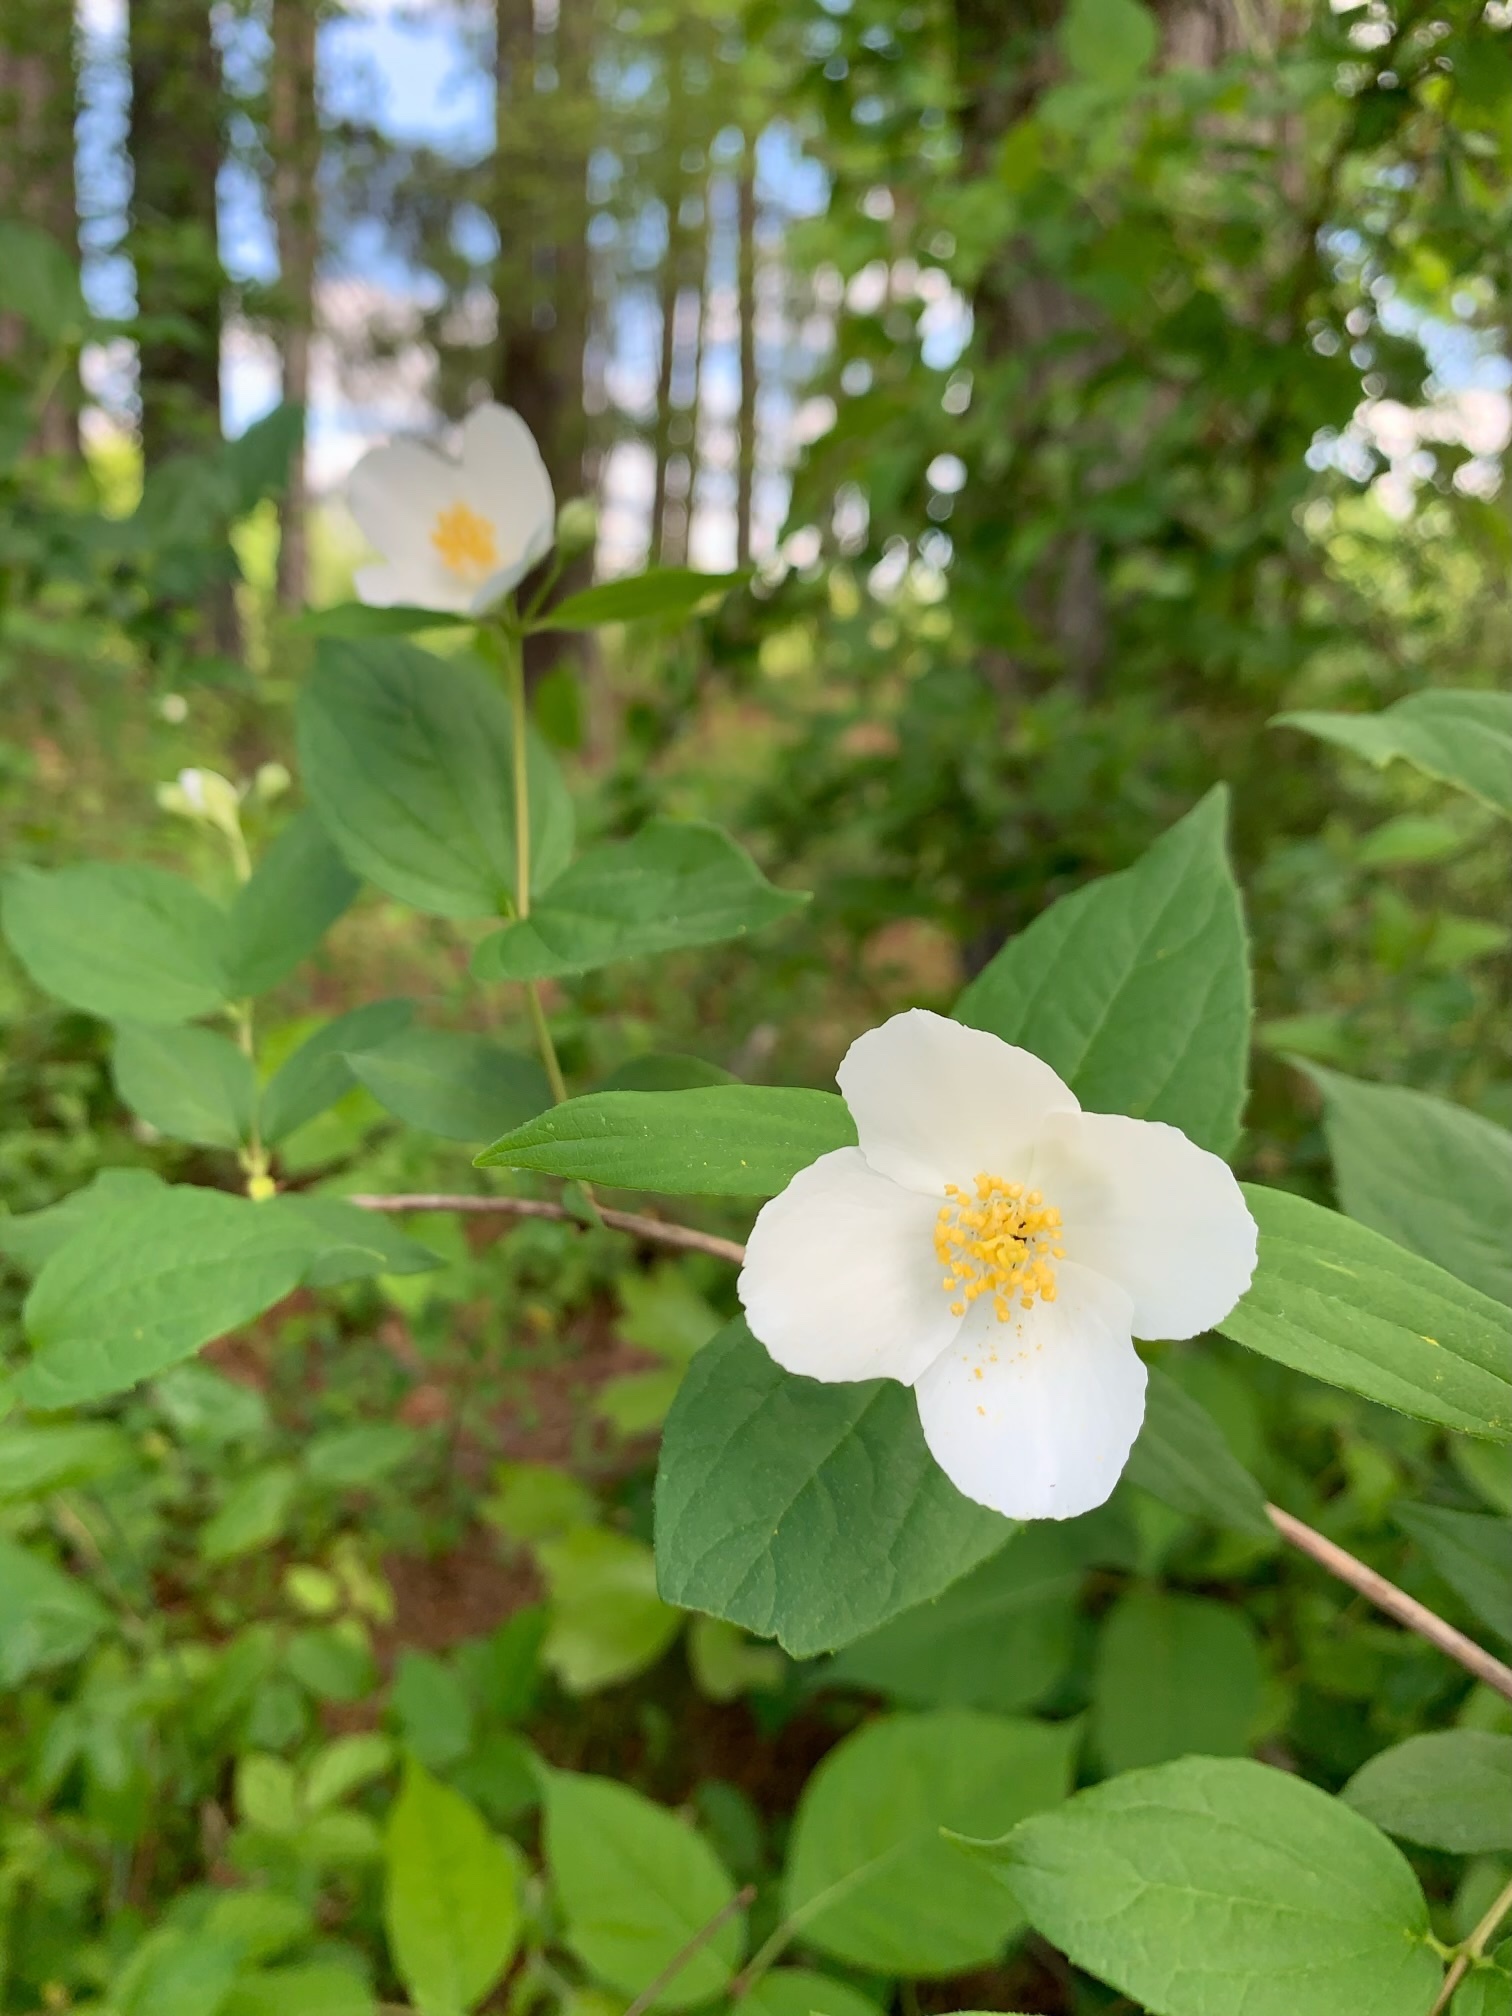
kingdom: Plantae
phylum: Tracheophyta
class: Magnoliopsida
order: Cornales
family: Hydrangeaceae
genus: Philadelphus
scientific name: Philadelphus inodorus
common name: Scentless mock-orange
